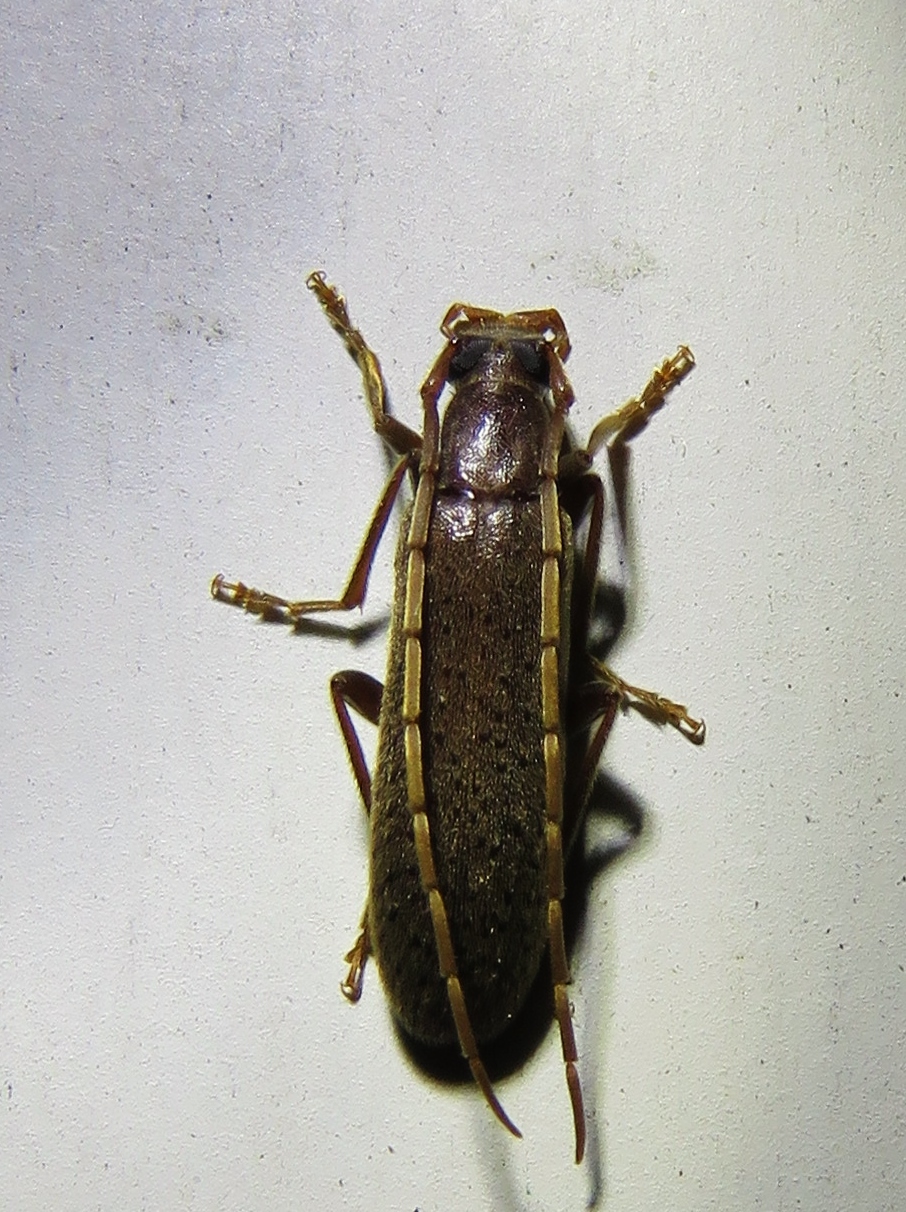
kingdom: Animalia
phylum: Arthropoda
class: Insecta
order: Coleoptera
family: Oedemeridae
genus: Sparedrus
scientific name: Sparedrus aspersus
